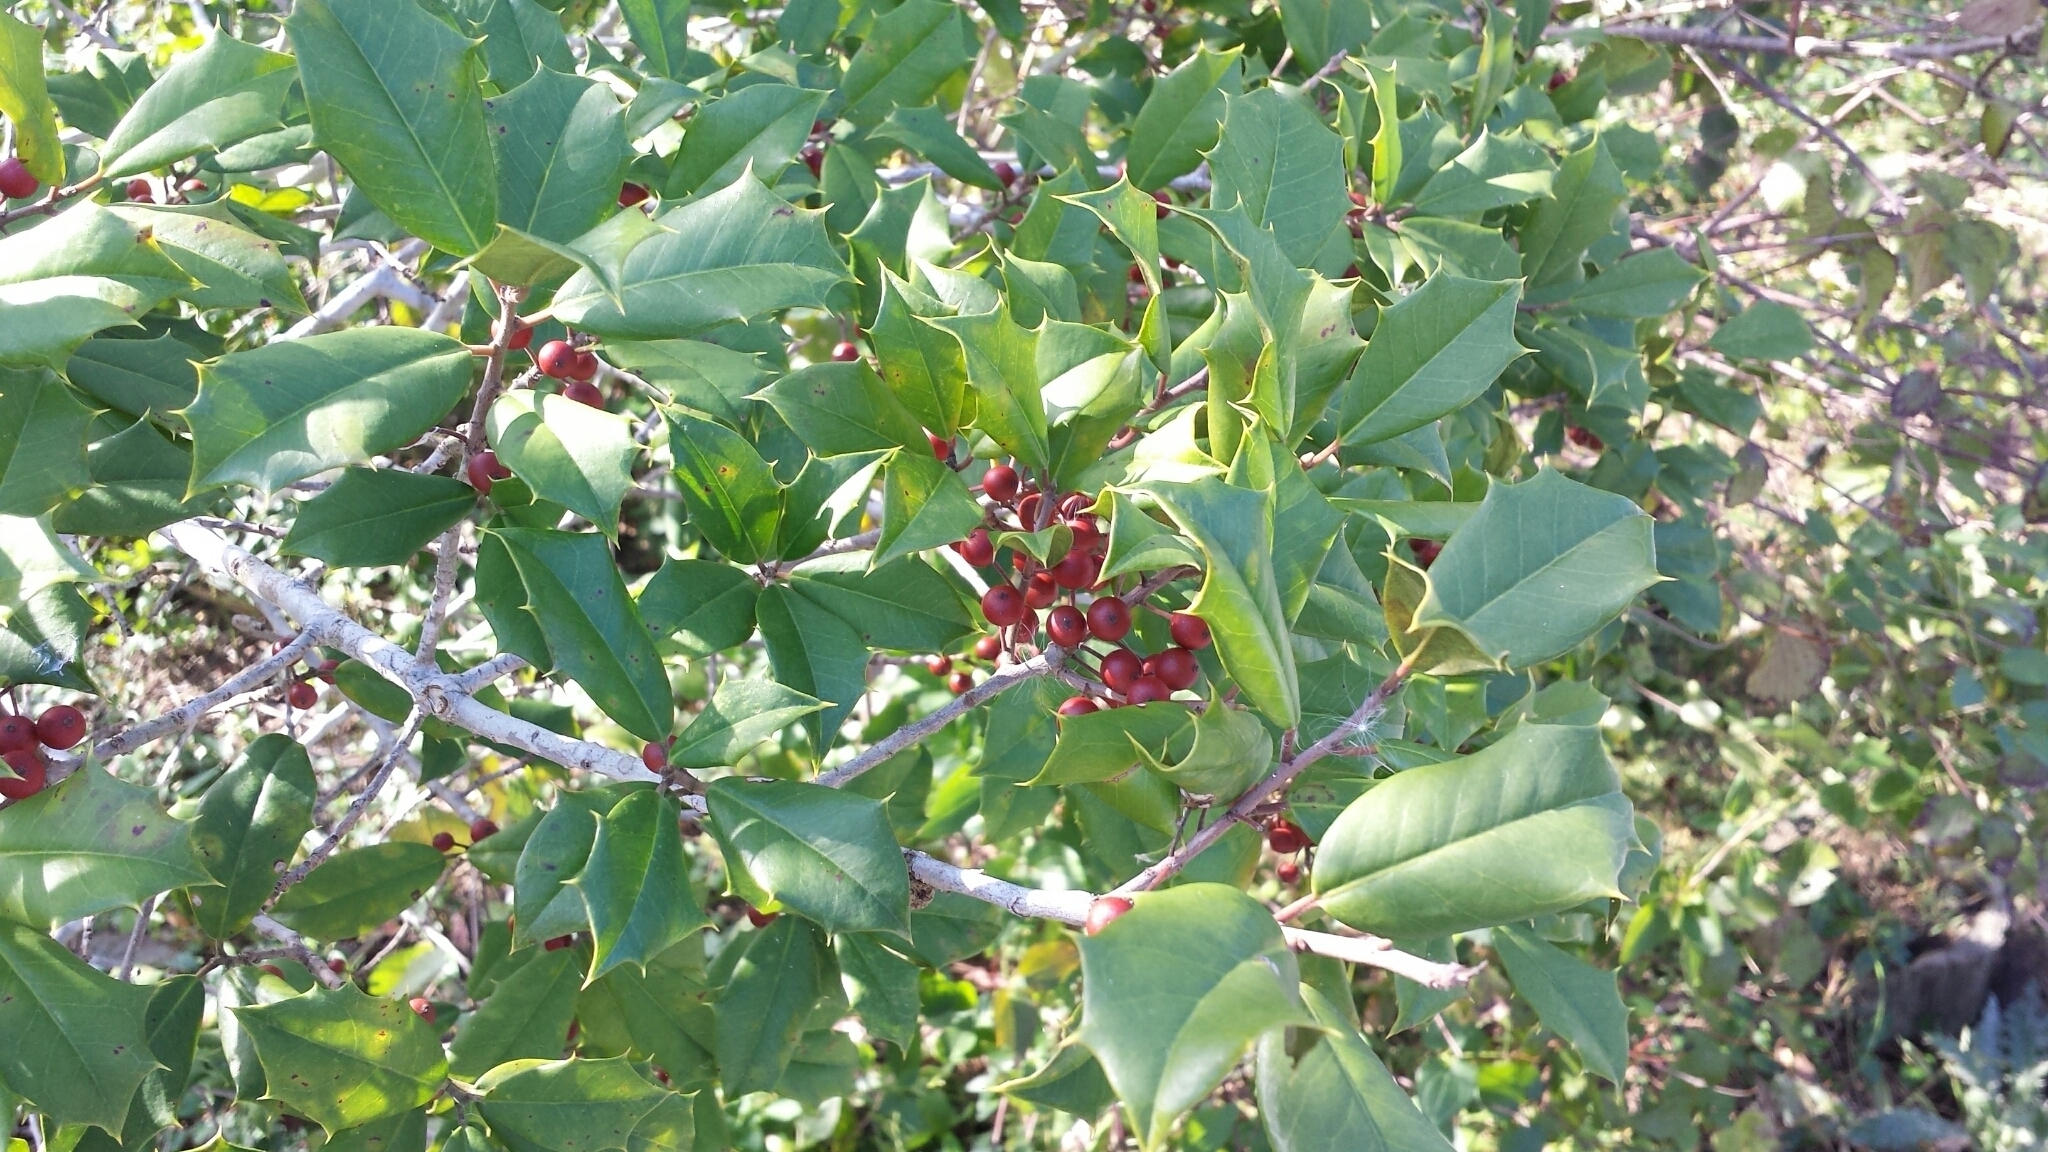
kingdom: Plantae
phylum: Tracheophyta
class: Magnoliopsida
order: Aquifoliales
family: Aquifoliaceae
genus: Ilex
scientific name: Ilex opaca
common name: American holly
